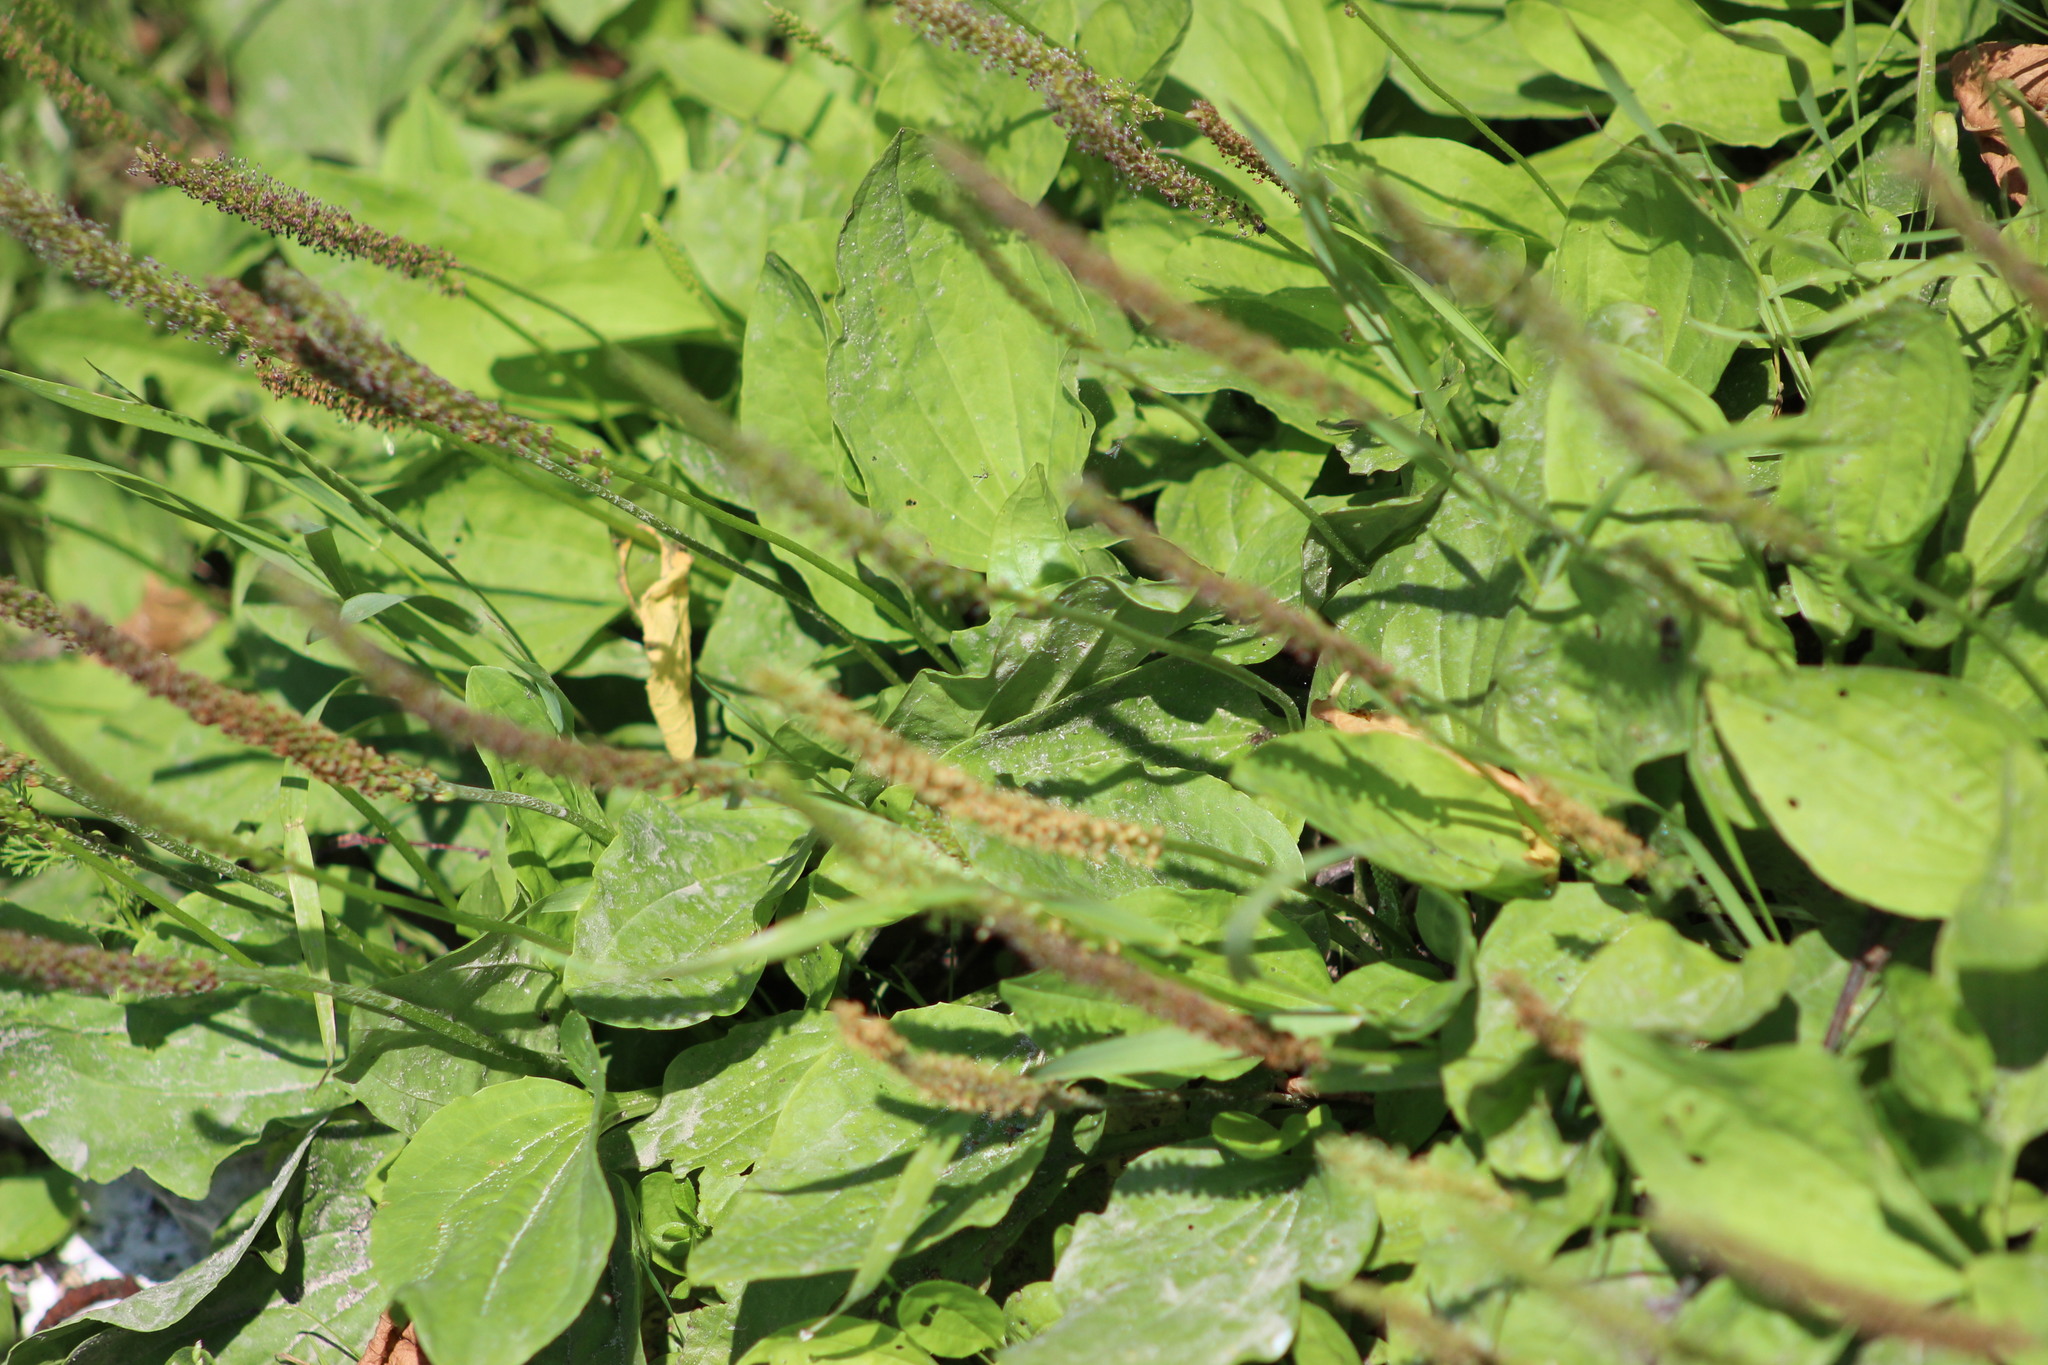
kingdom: Plantae
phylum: Tracheophyta
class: Magnoliopsida
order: Lamiales
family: Plantaginaceae
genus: Plantago
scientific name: Plantago major
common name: Common plantain
